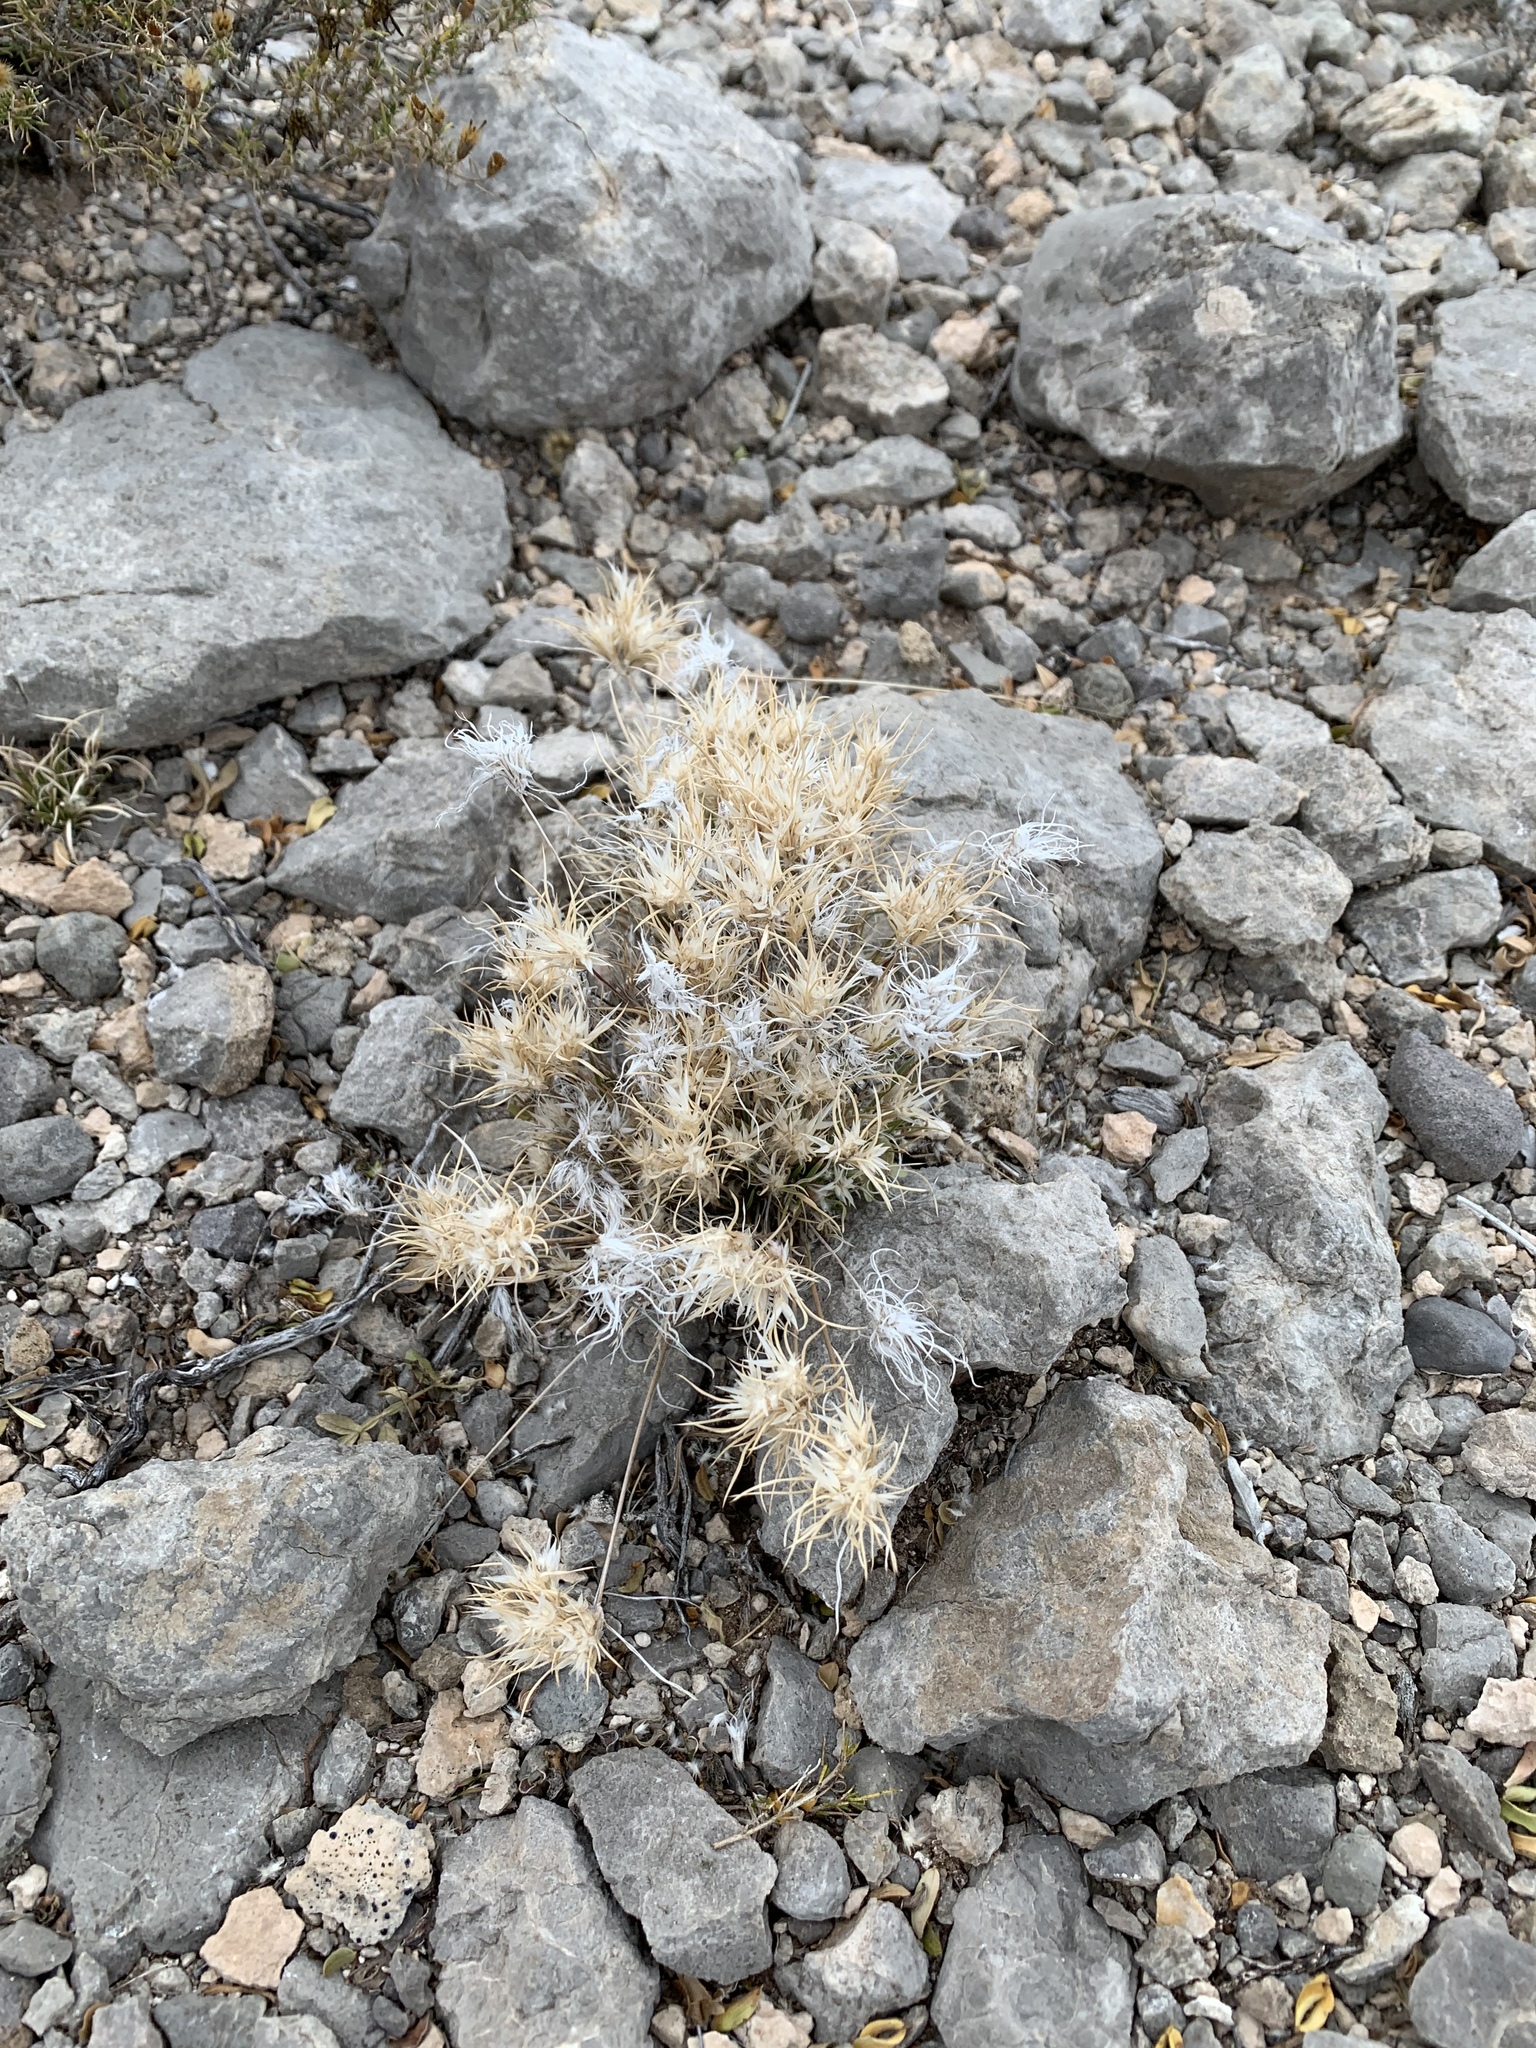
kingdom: Plantae
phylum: Tracheophyta
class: Liliopsida
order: Poales
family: Poaceae
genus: Dasyochloa
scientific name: Dasyochloa pulchella
